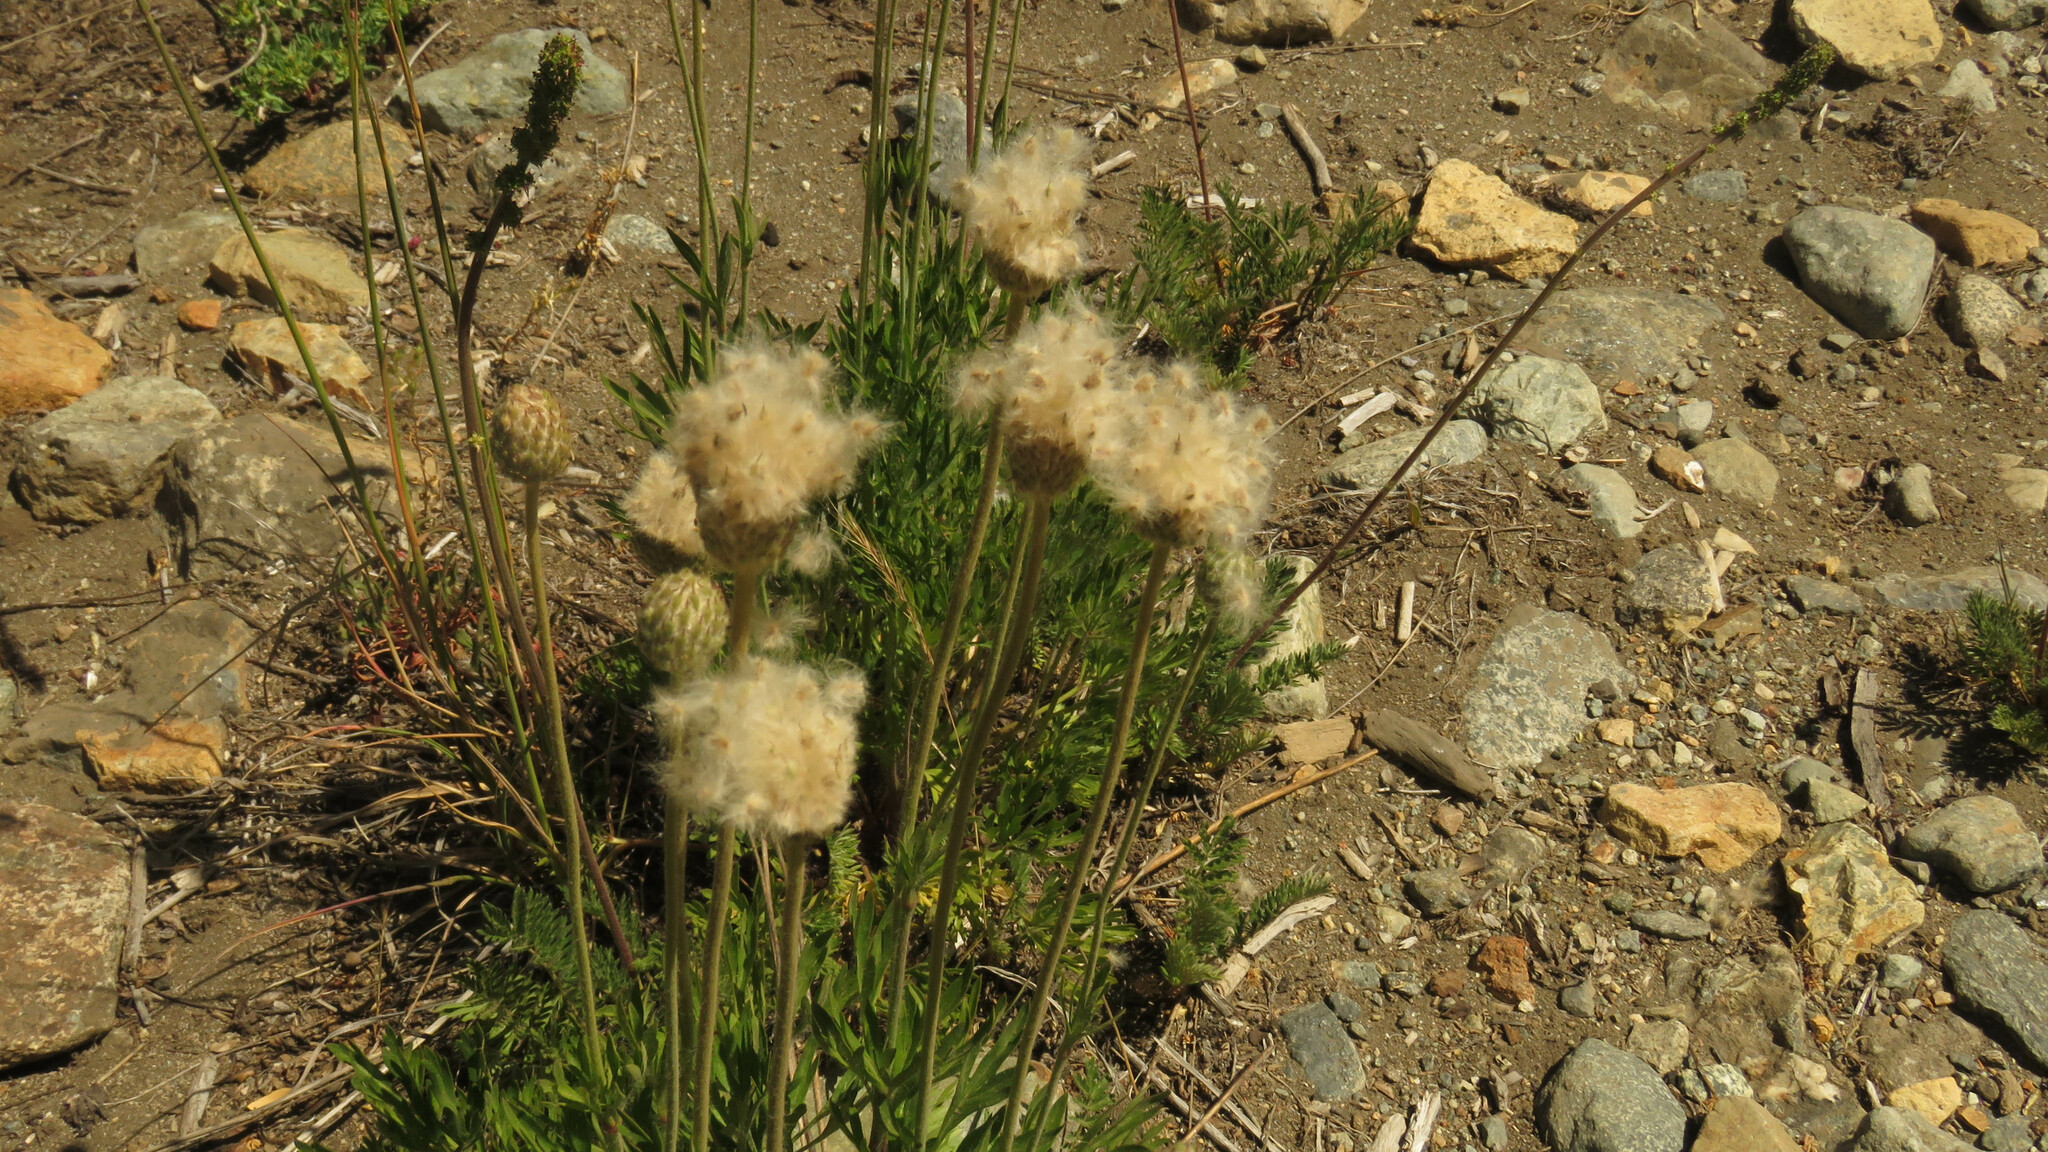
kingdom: Plantae
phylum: Tracheophyta
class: Magnoliopsida
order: Ranunculales
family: Ranunculaceae
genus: Anemone
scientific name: Anemone multifida
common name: Bird's-foot anemone
